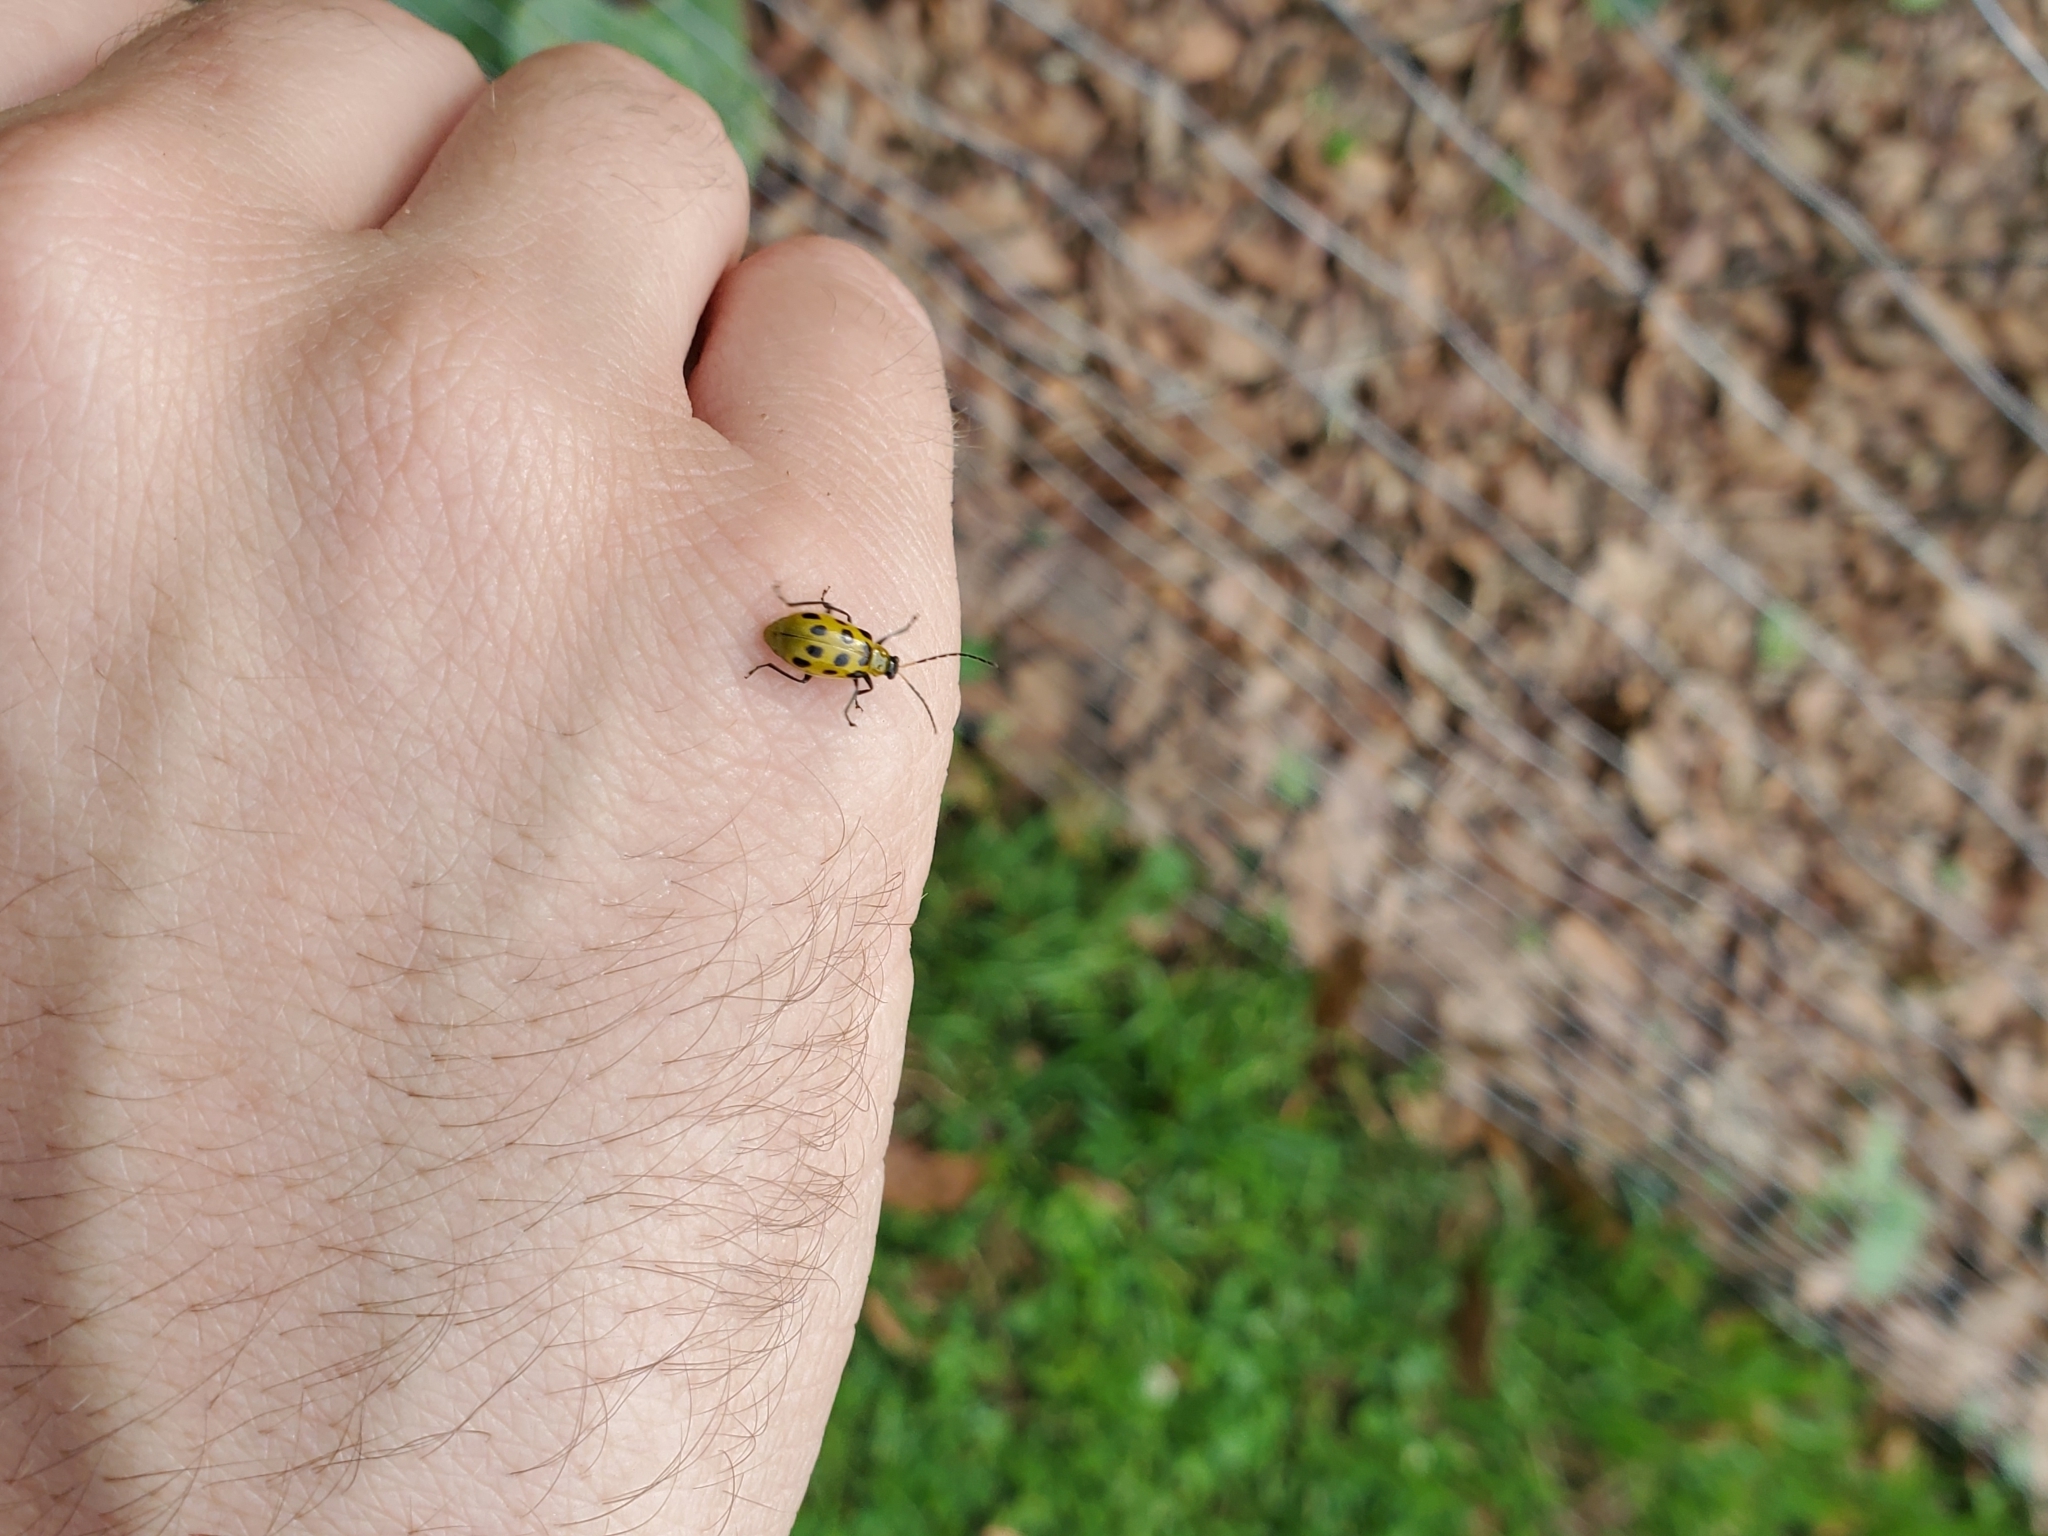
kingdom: Animalia
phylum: Arthropoda
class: Insecta
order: Coleoptera
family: Chrysomelidae
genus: Diabrotica
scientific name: Diabrotica undecimpunctata
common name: Spotted cucumber beetle
